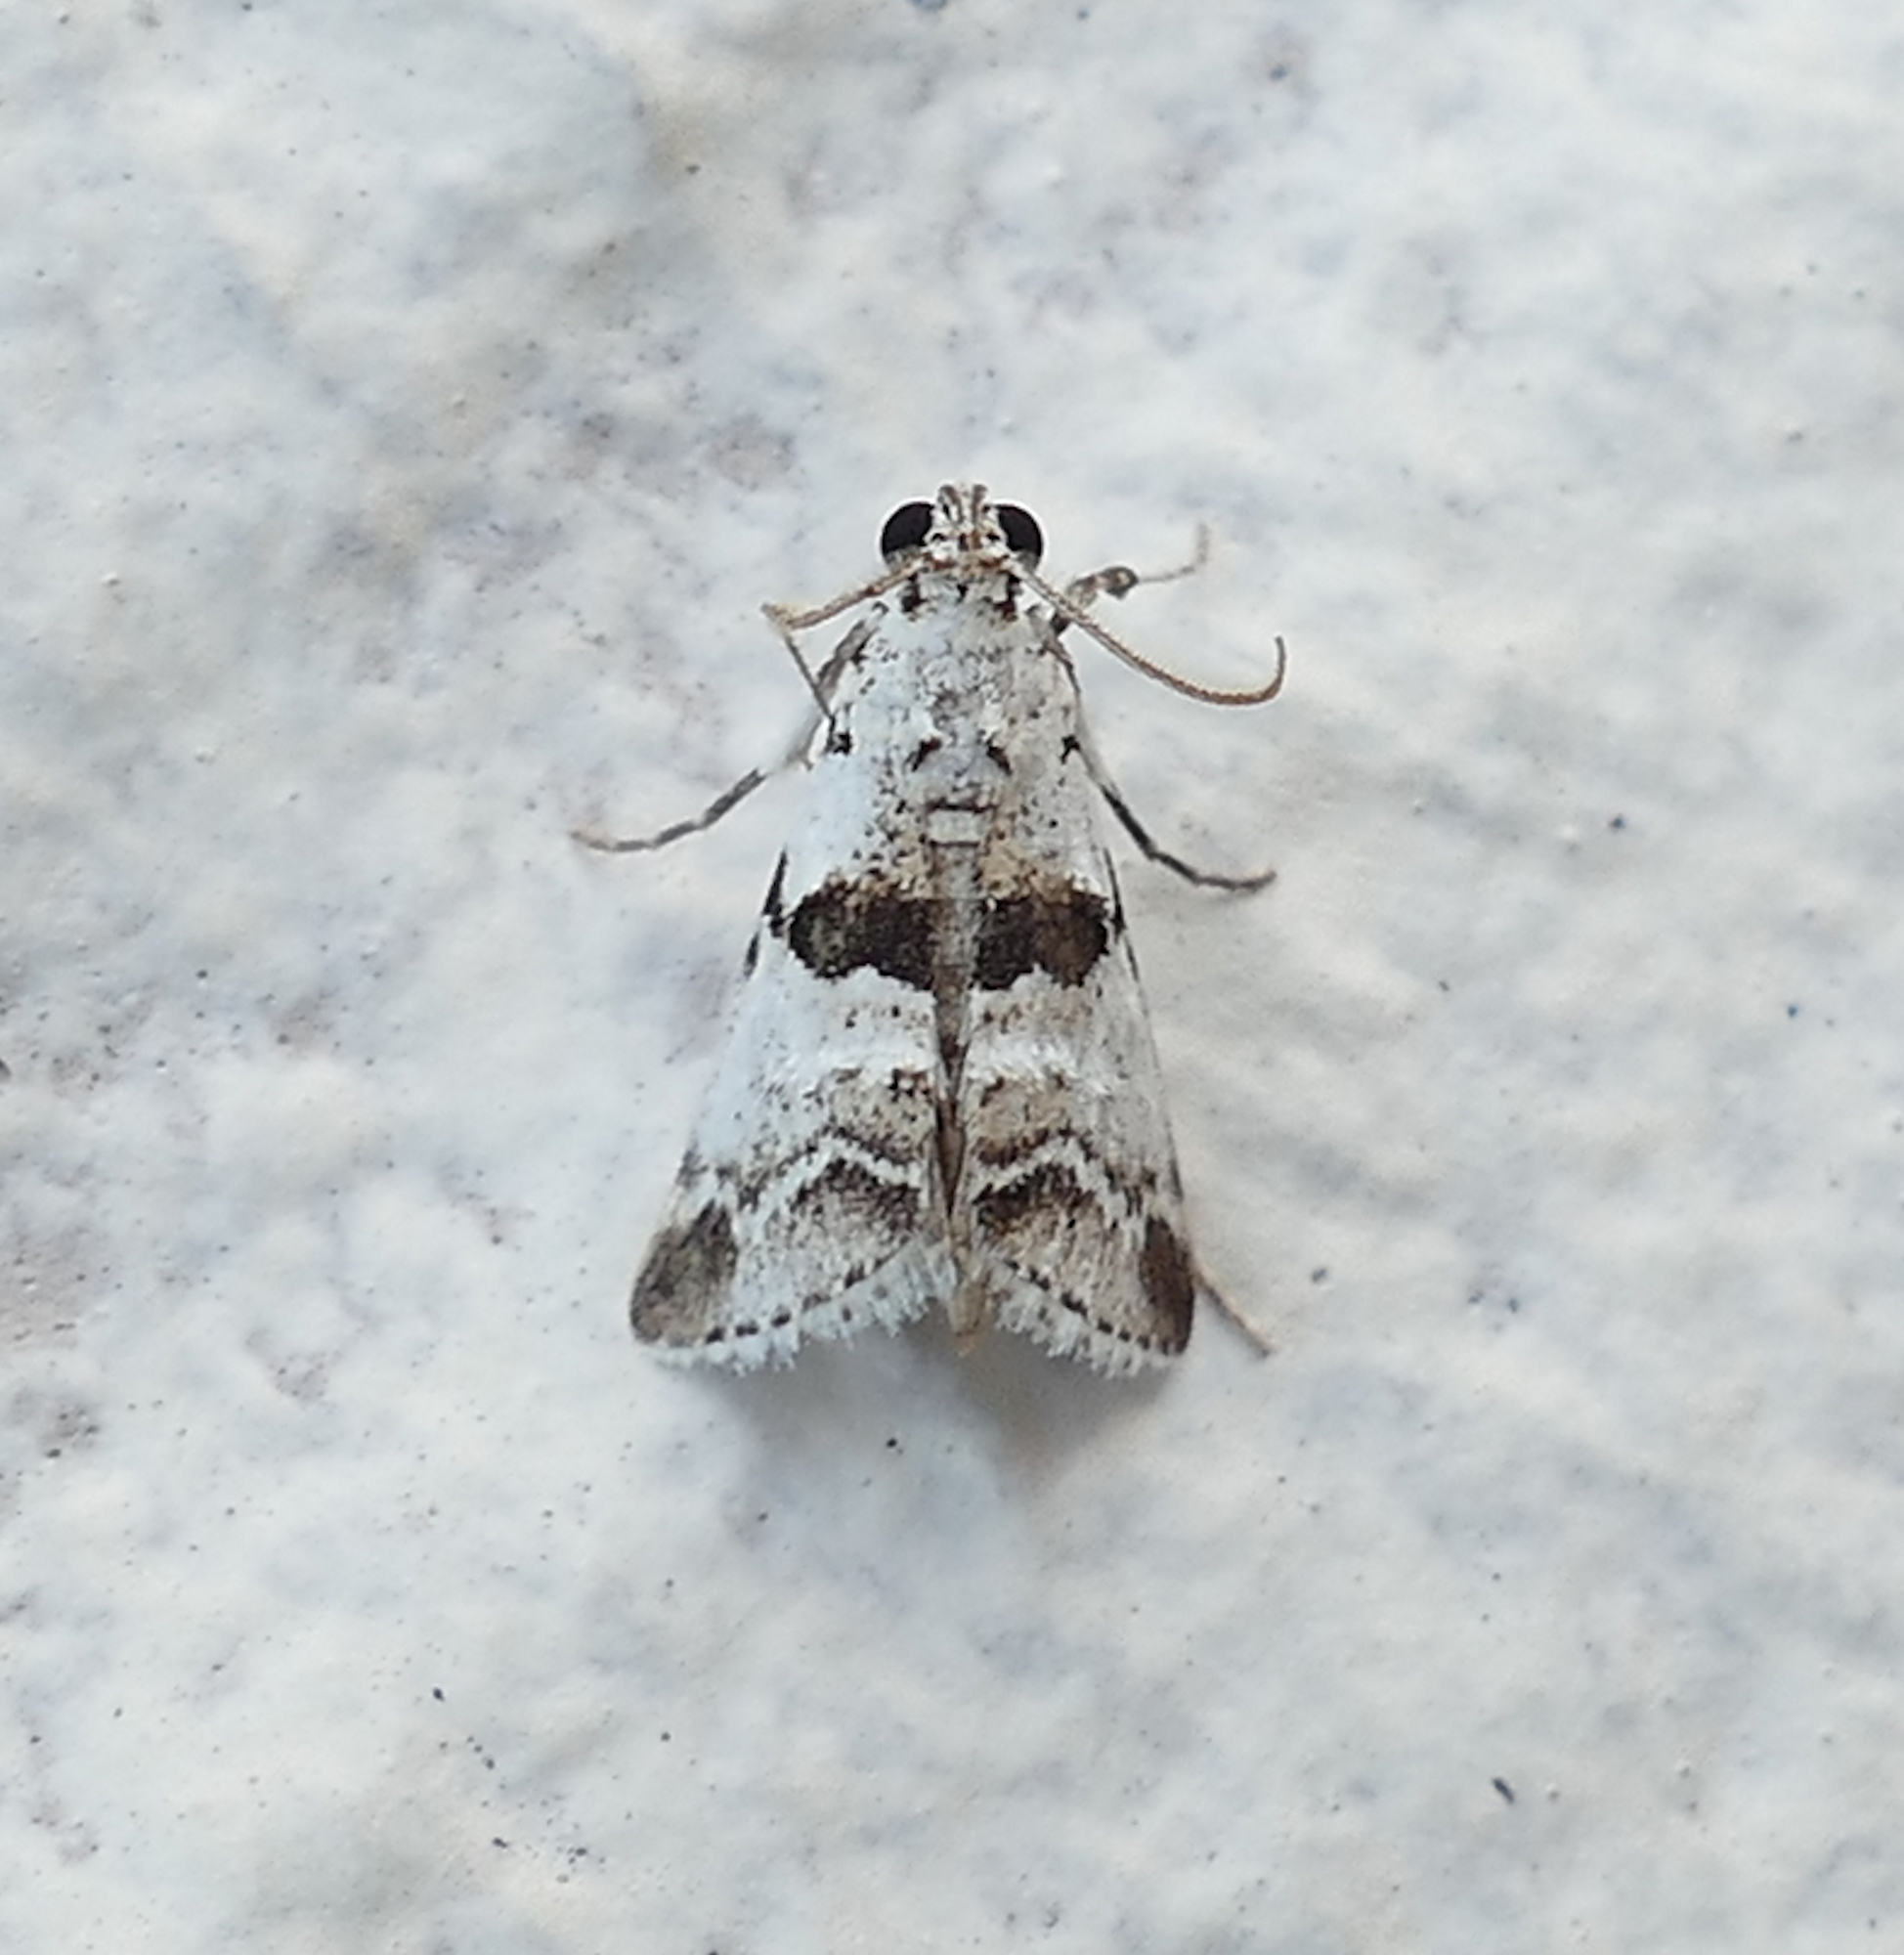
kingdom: Animalia
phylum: Arthropoda
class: Insecta
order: Lepidoptera
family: Pyralidae
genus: Tallula
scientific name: Tallula atrifascialis
